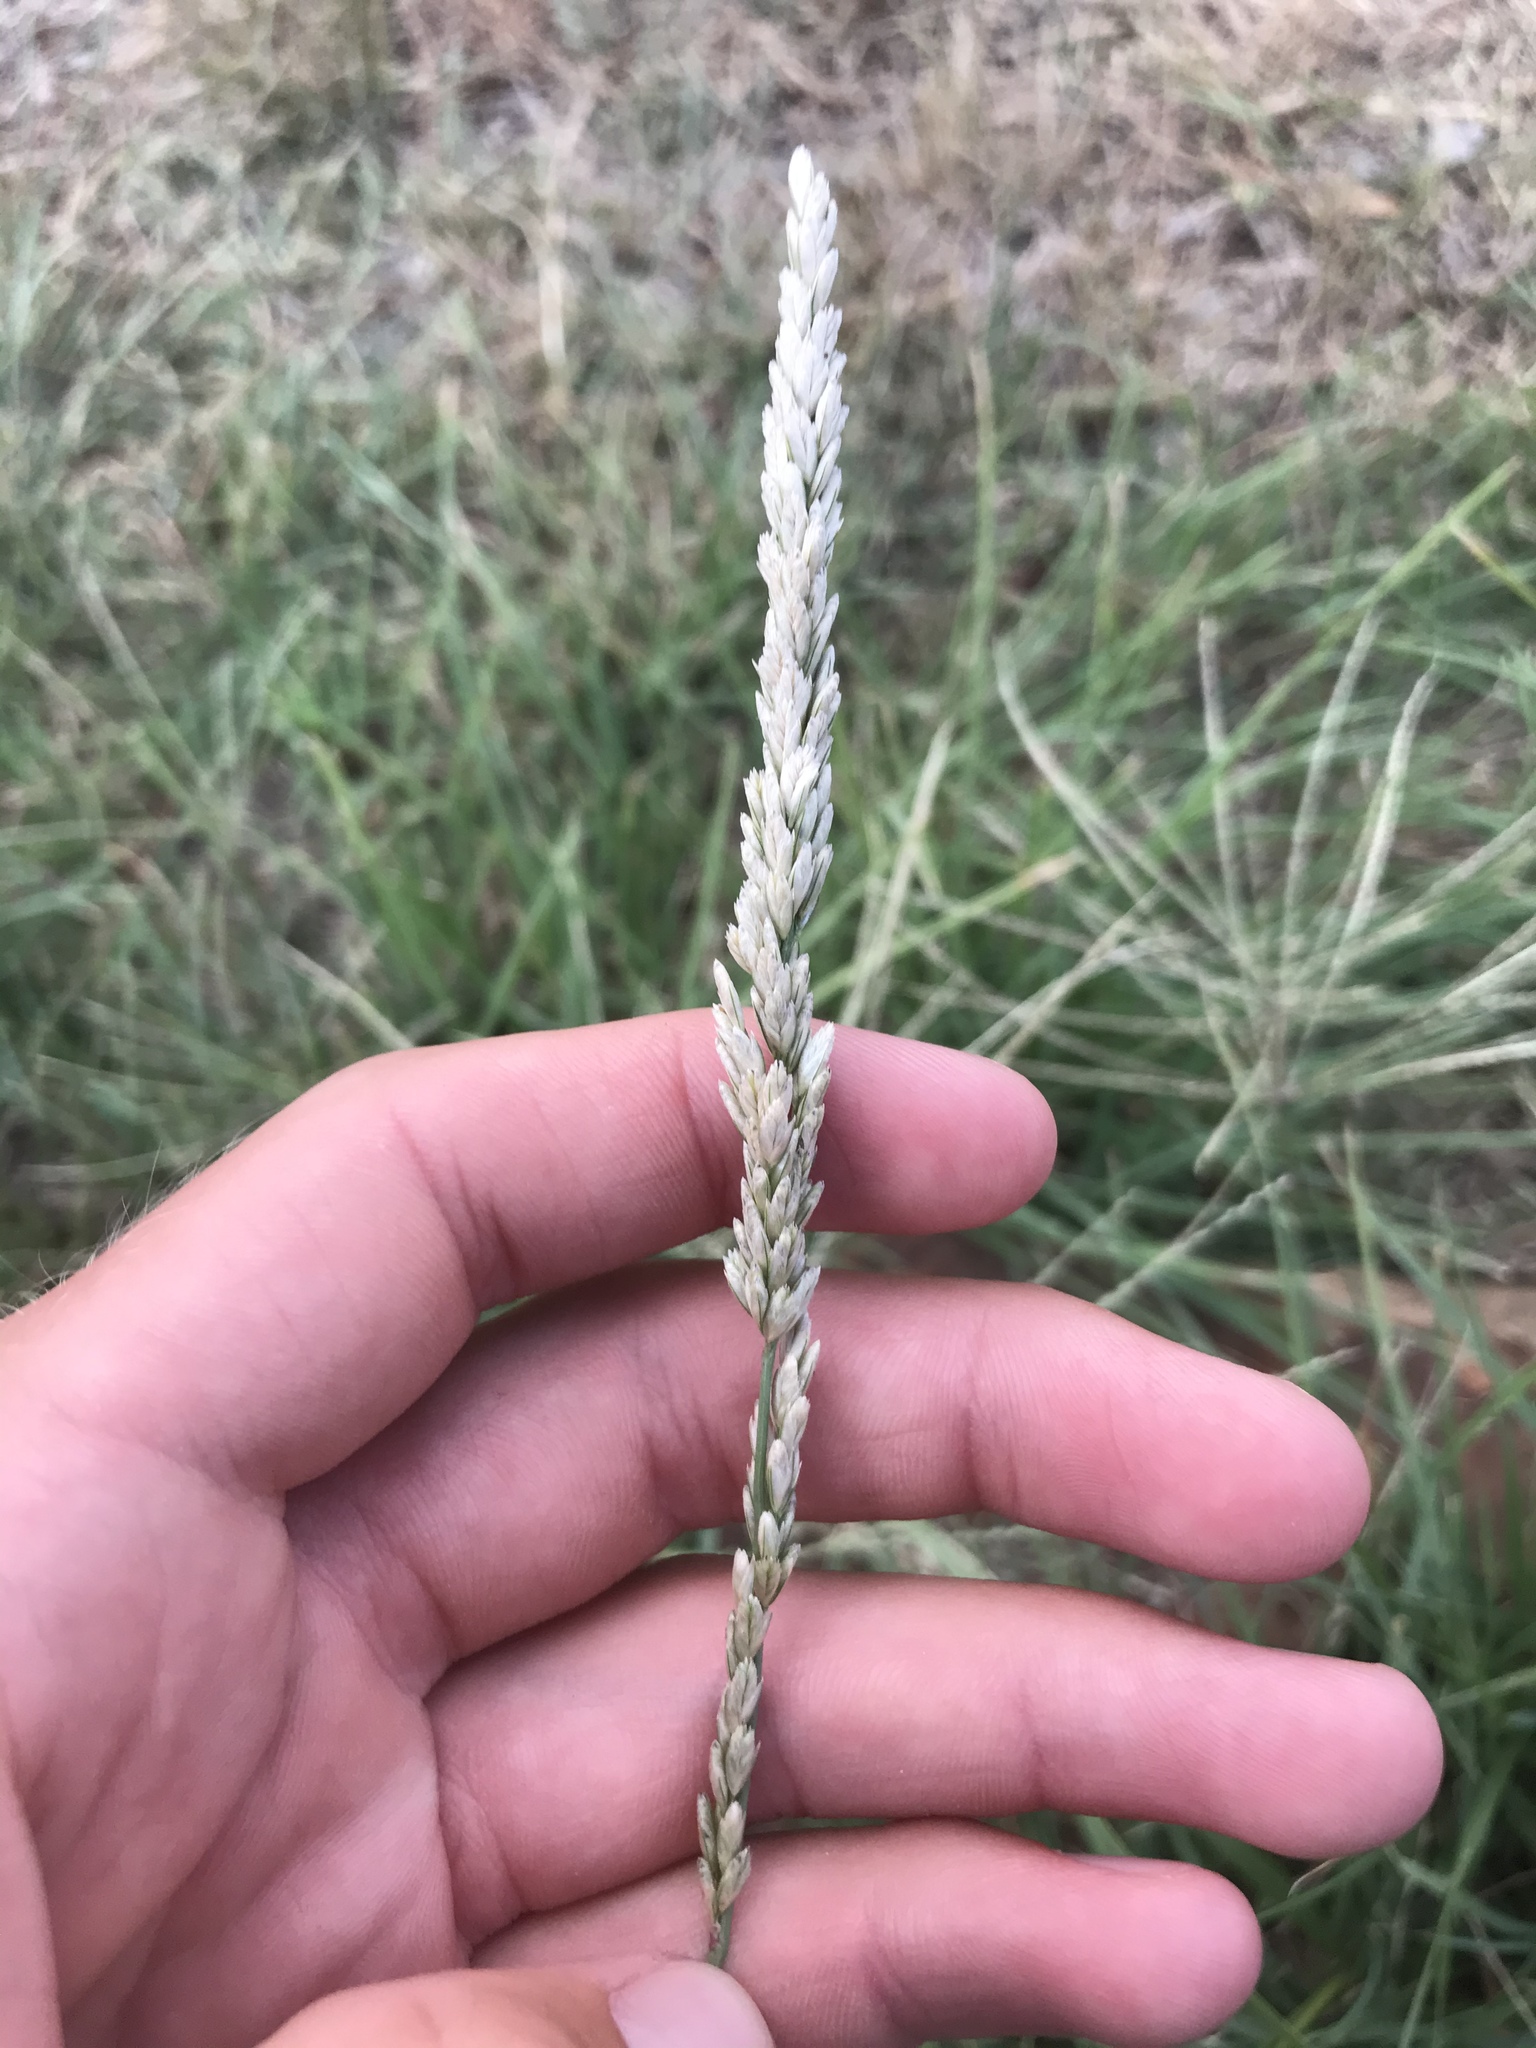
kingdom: Plantae
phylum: Tracheophyta
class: Liliopsida
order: Poales
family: Poaceae
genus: Tridens
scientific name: Tridens albescens
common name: White tridens
